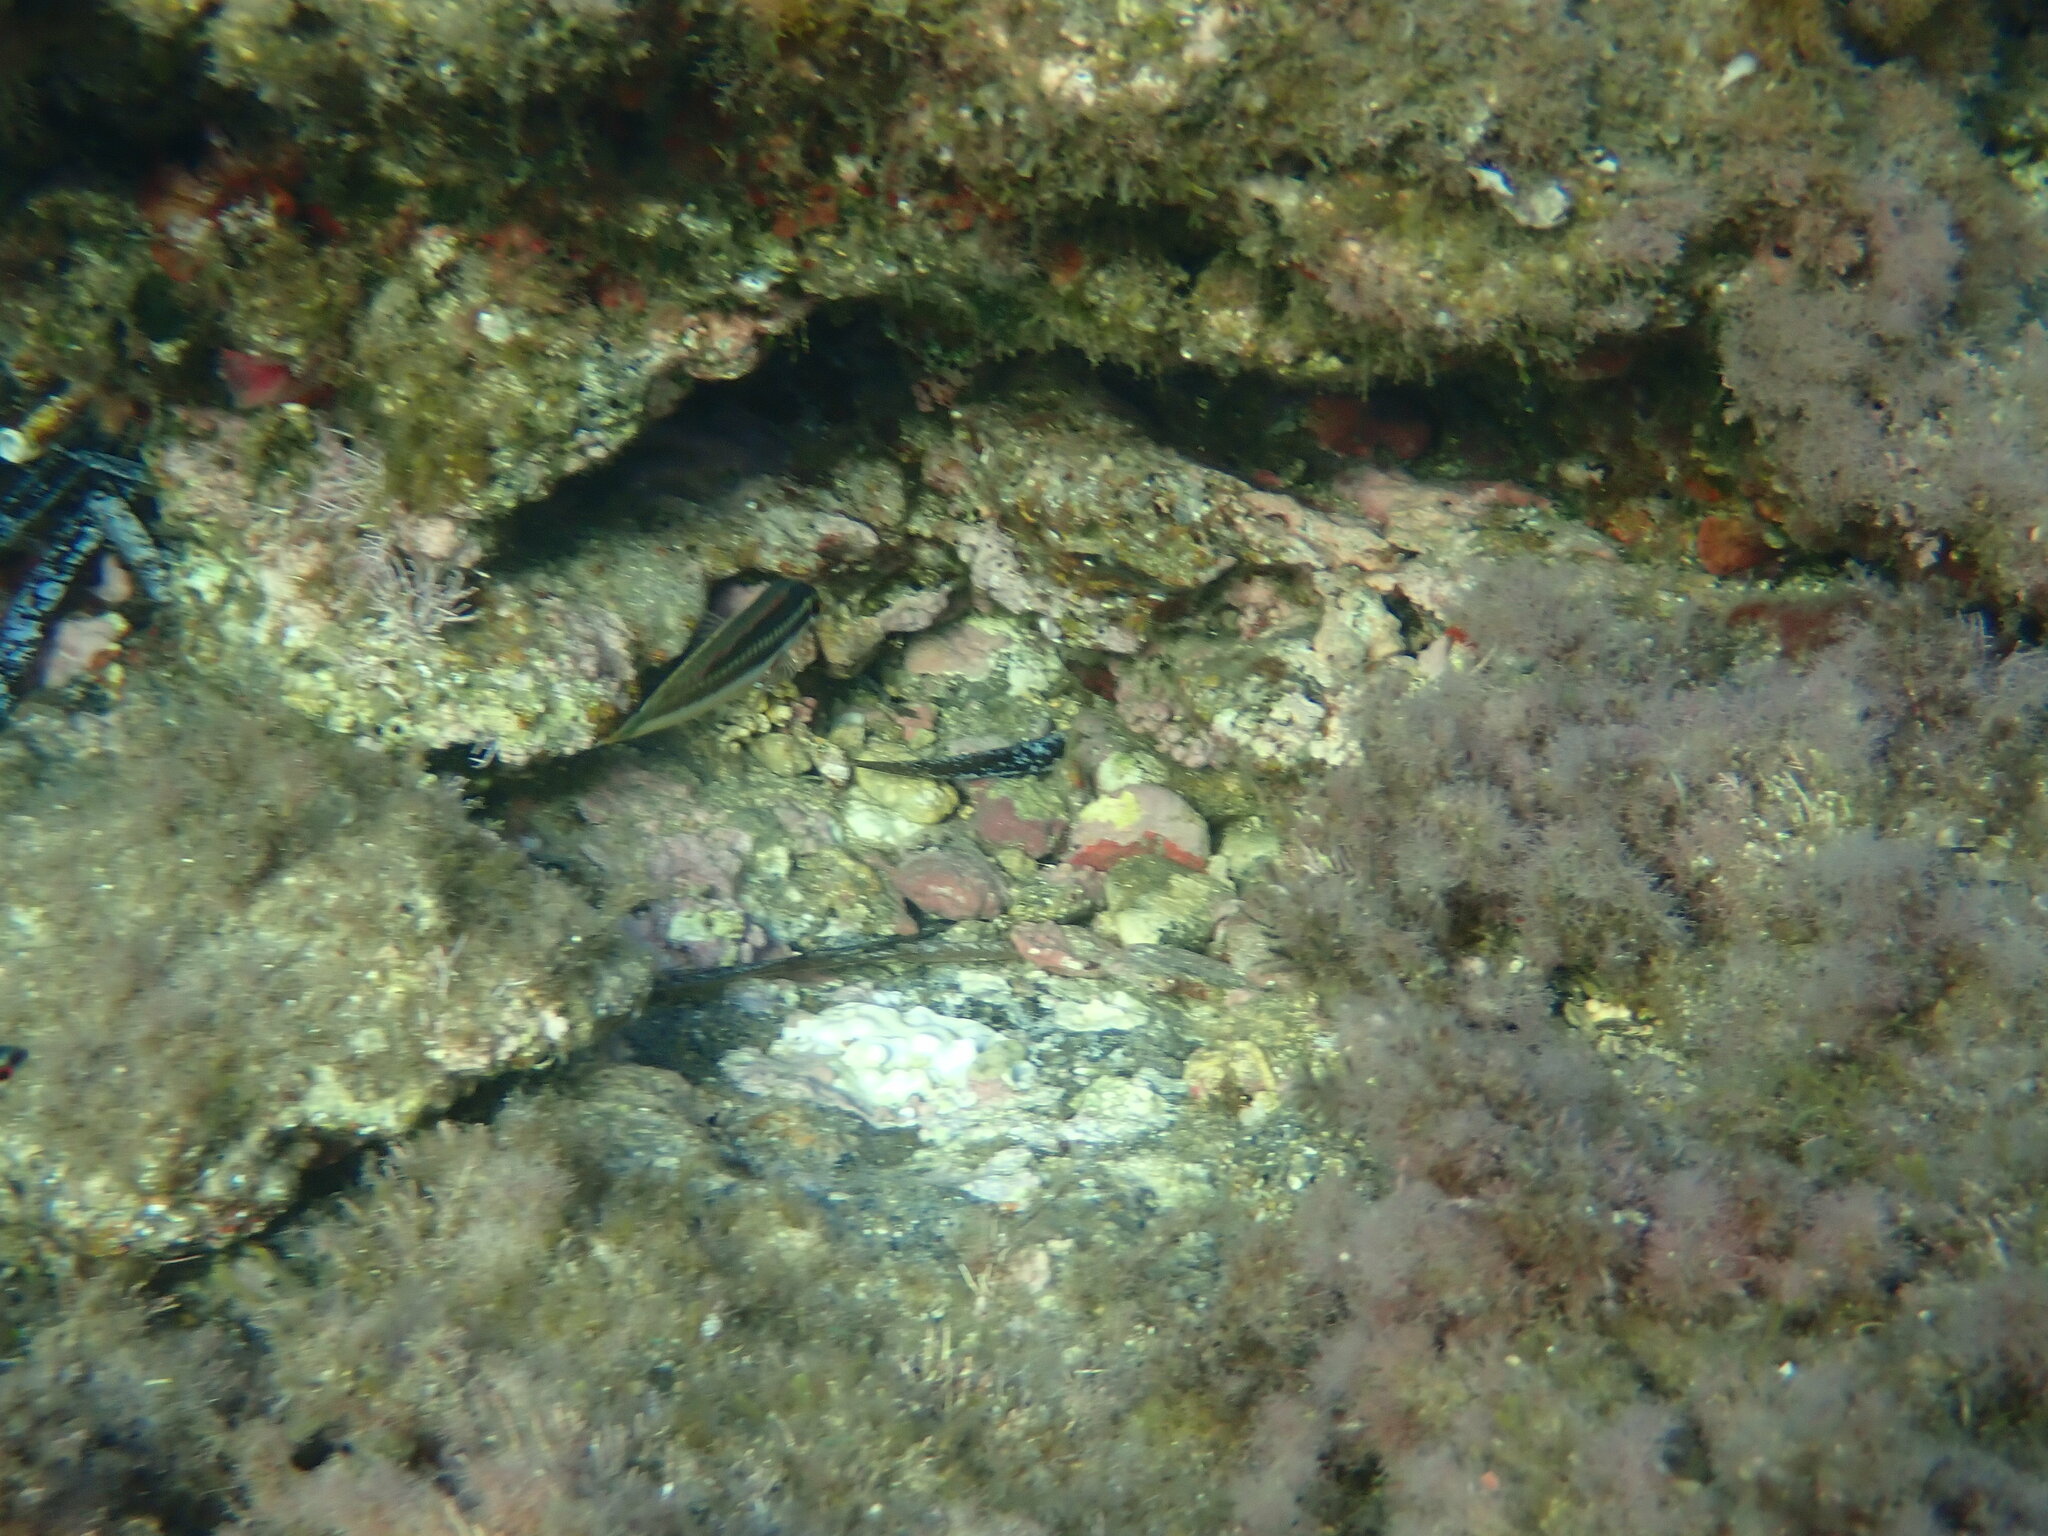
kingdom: Animalia
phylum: Chordata
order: Perciformes
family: Labridae
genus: Coris
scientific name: Coris julis
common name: Rainbow wrasse
